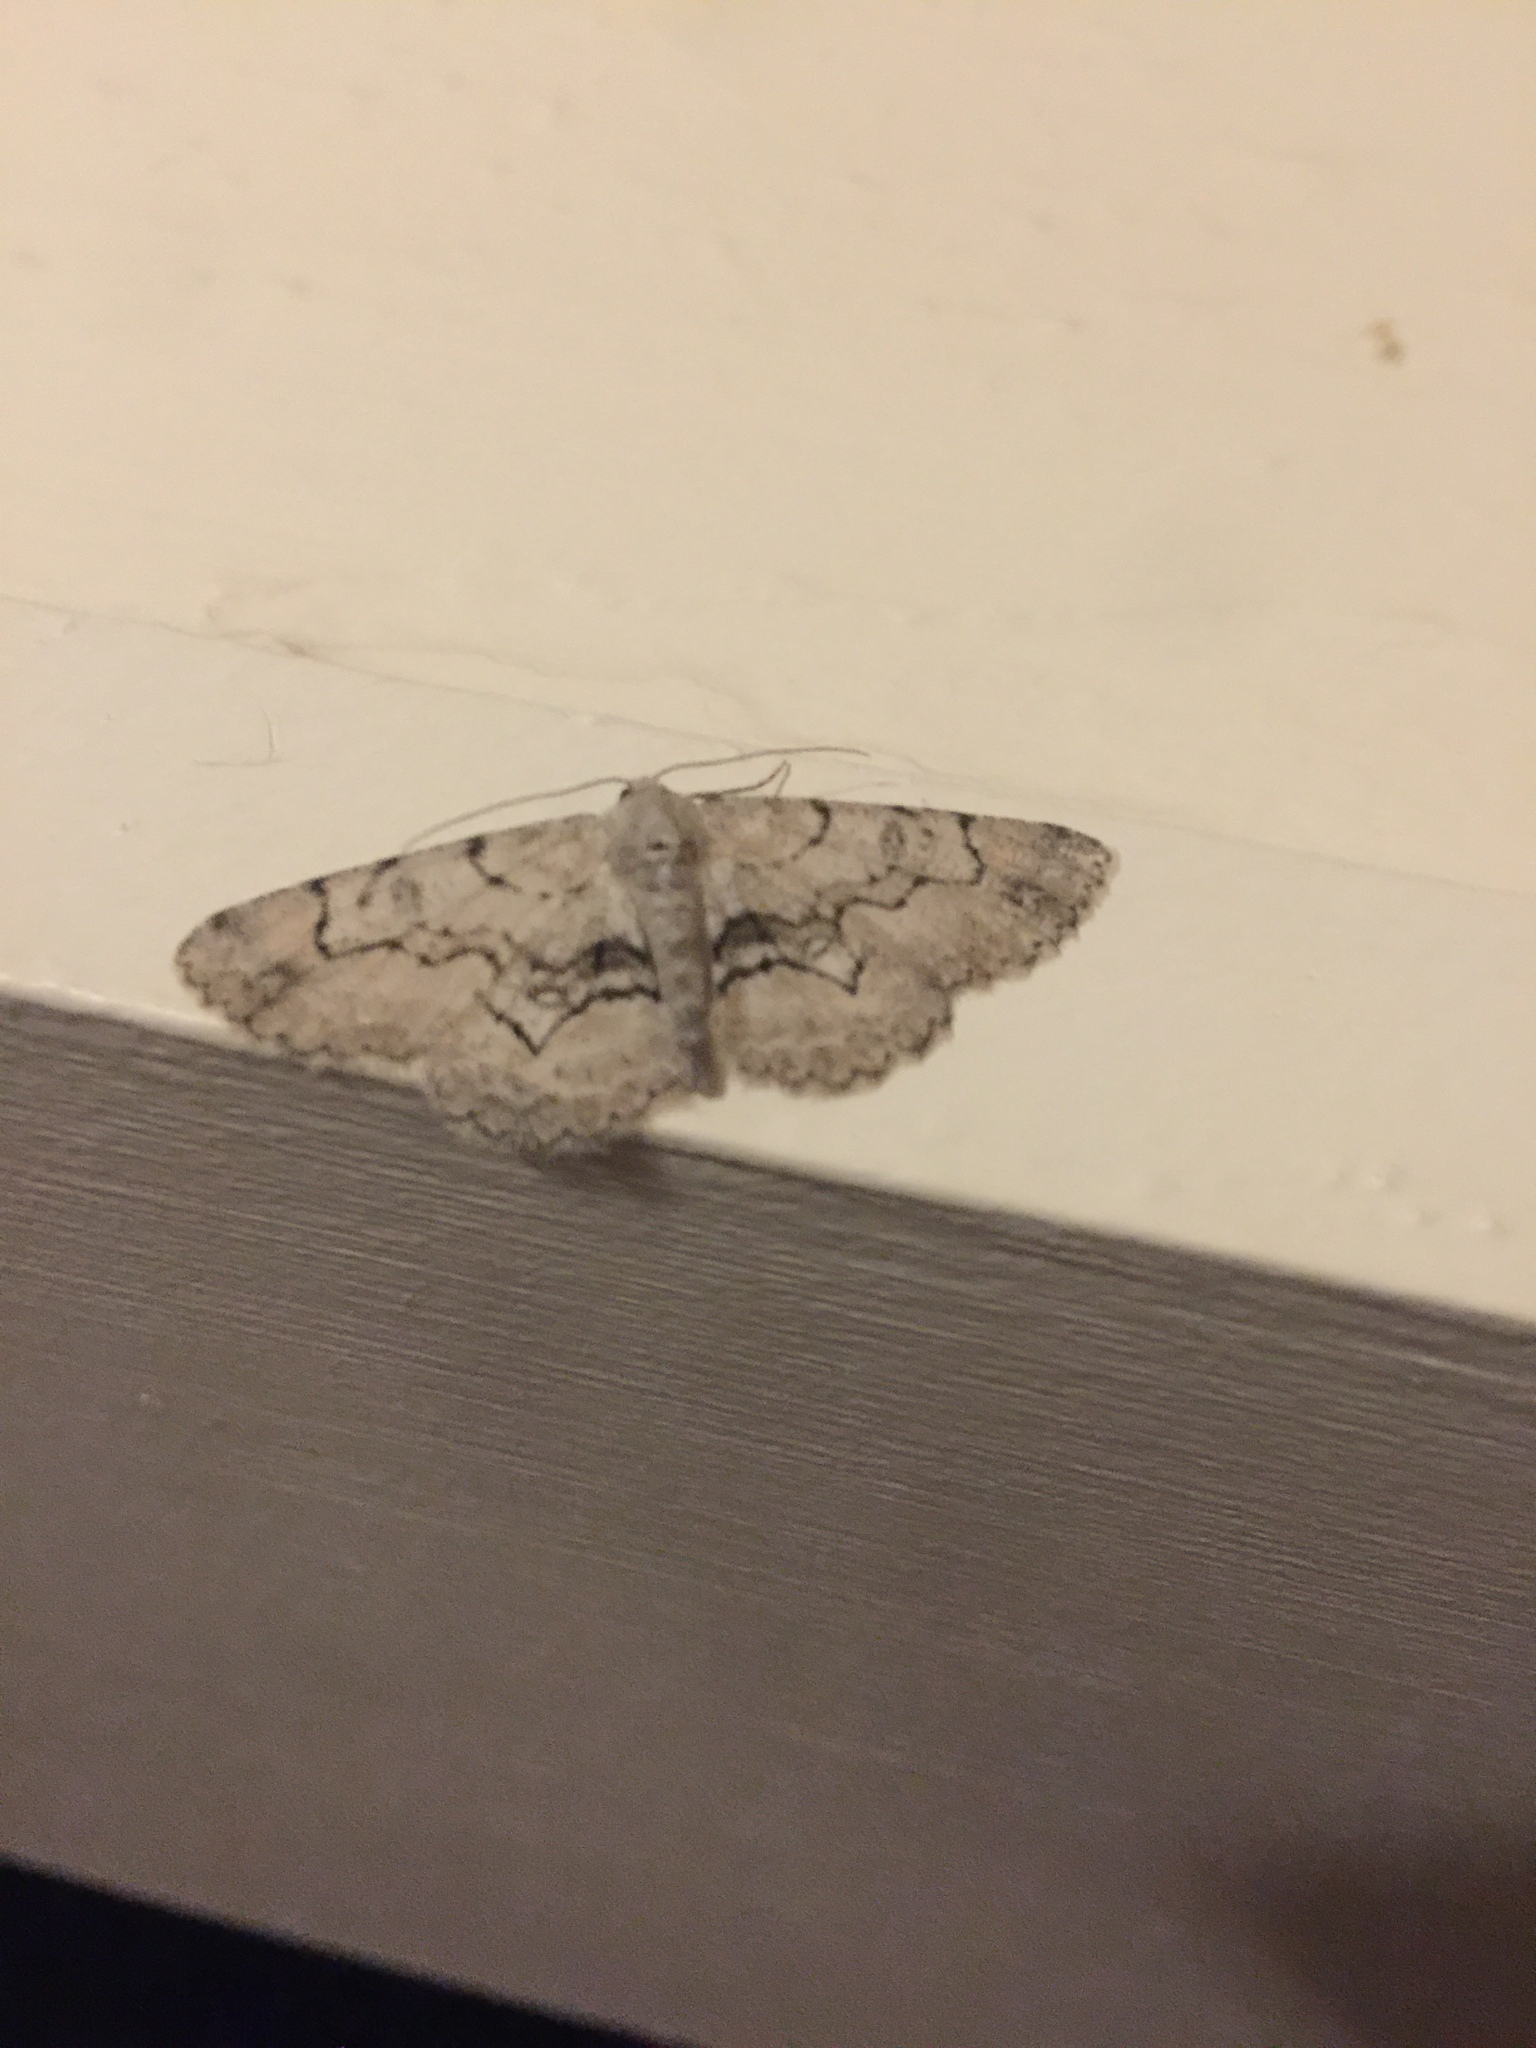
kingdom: Animalia
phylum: Arthropoda
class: Insecta
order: Lepidoptera
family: Geometridae
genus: Iridopsis
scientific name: Iridopsis larvaria
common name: Bent-line gray
